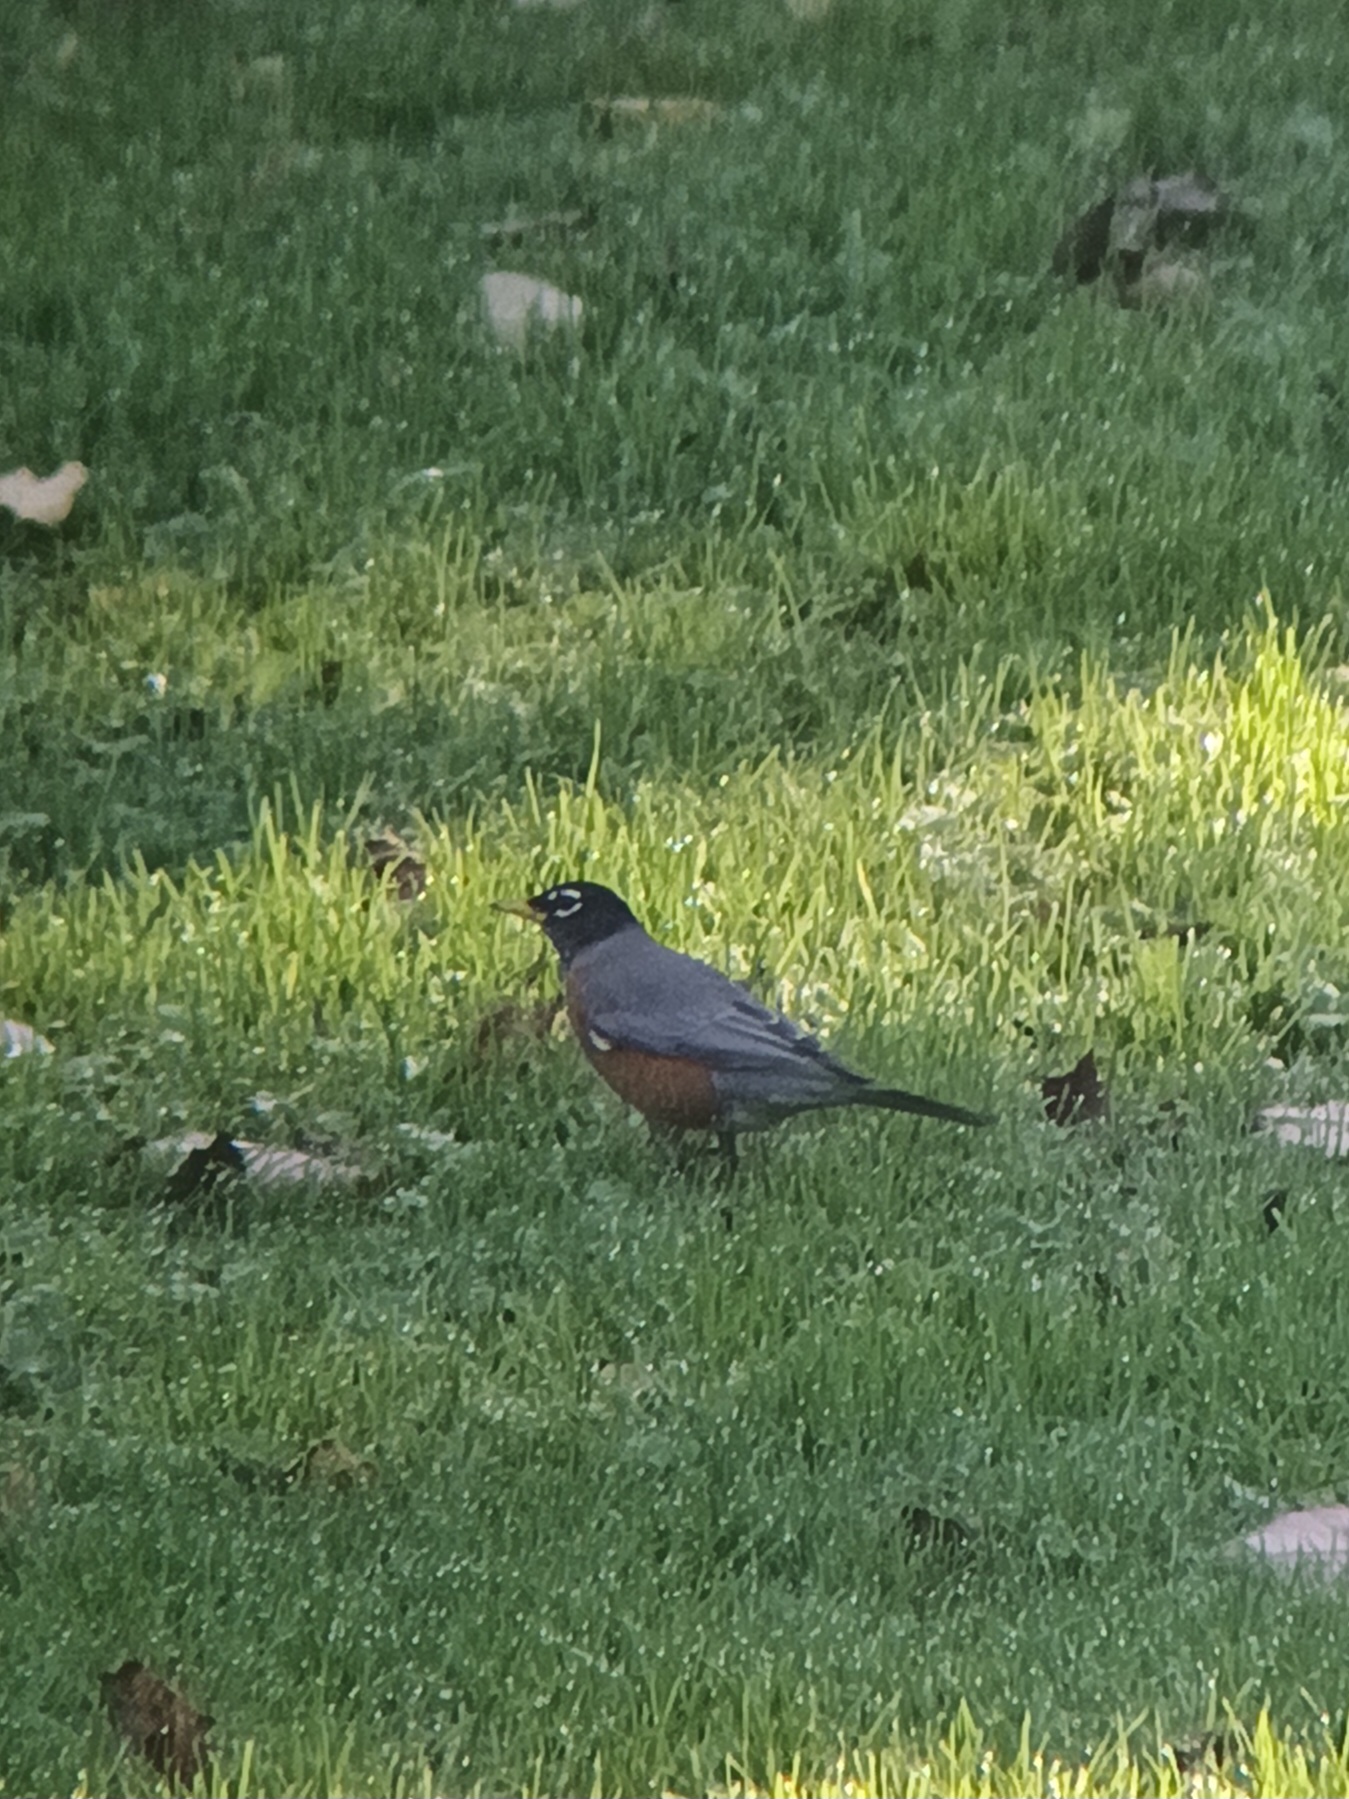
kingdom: Animalia
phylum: Chordata
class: Aves
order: Passeriformes
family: Turdidae
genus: Turdus
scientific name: Turdus migratorius
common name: American robin
